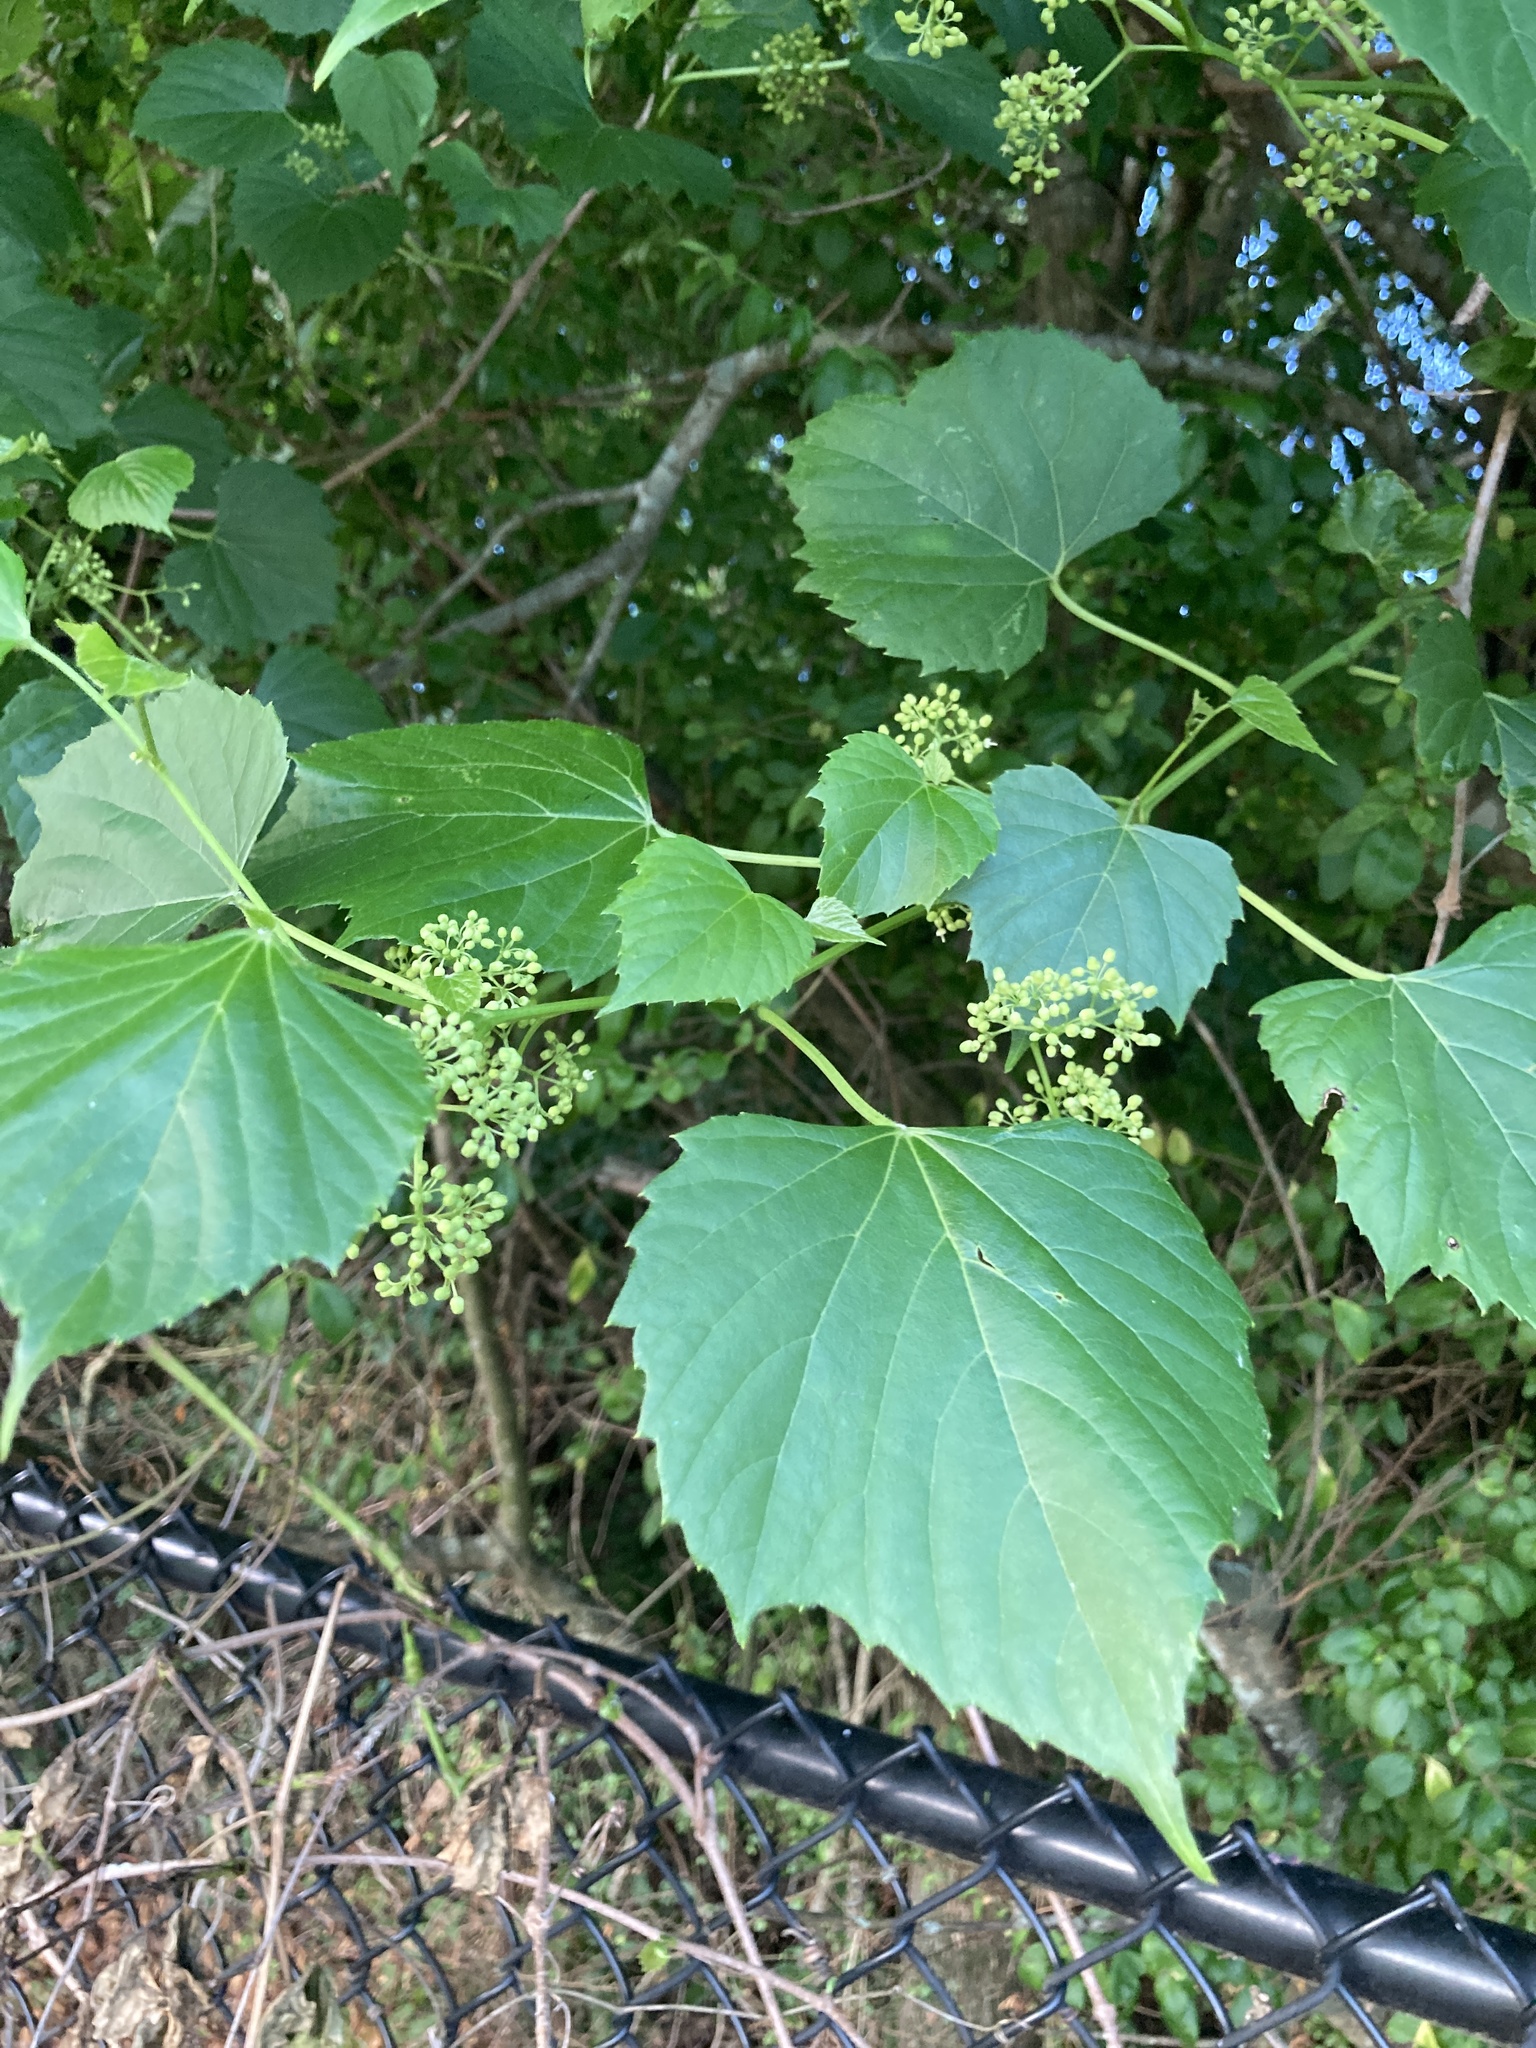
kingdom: Plantae
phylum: Tracheophyta
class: Magnoliopsida
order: Vitales
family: Vitaceae
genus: Ampelopsis
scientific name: Ampelopsis cordata
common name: Heart-leaf ampelopsis
